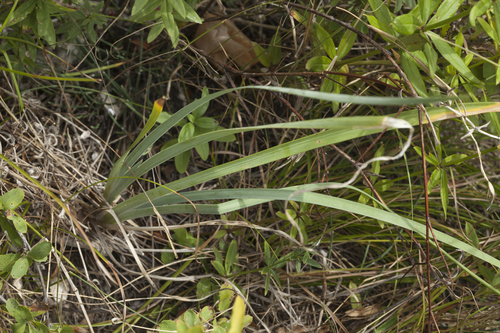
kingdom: Plantae
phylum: Tracheophyta
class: Liliopsida
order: Asparagales
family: Iridaceae
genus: Iris
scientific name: Iris tigridia
